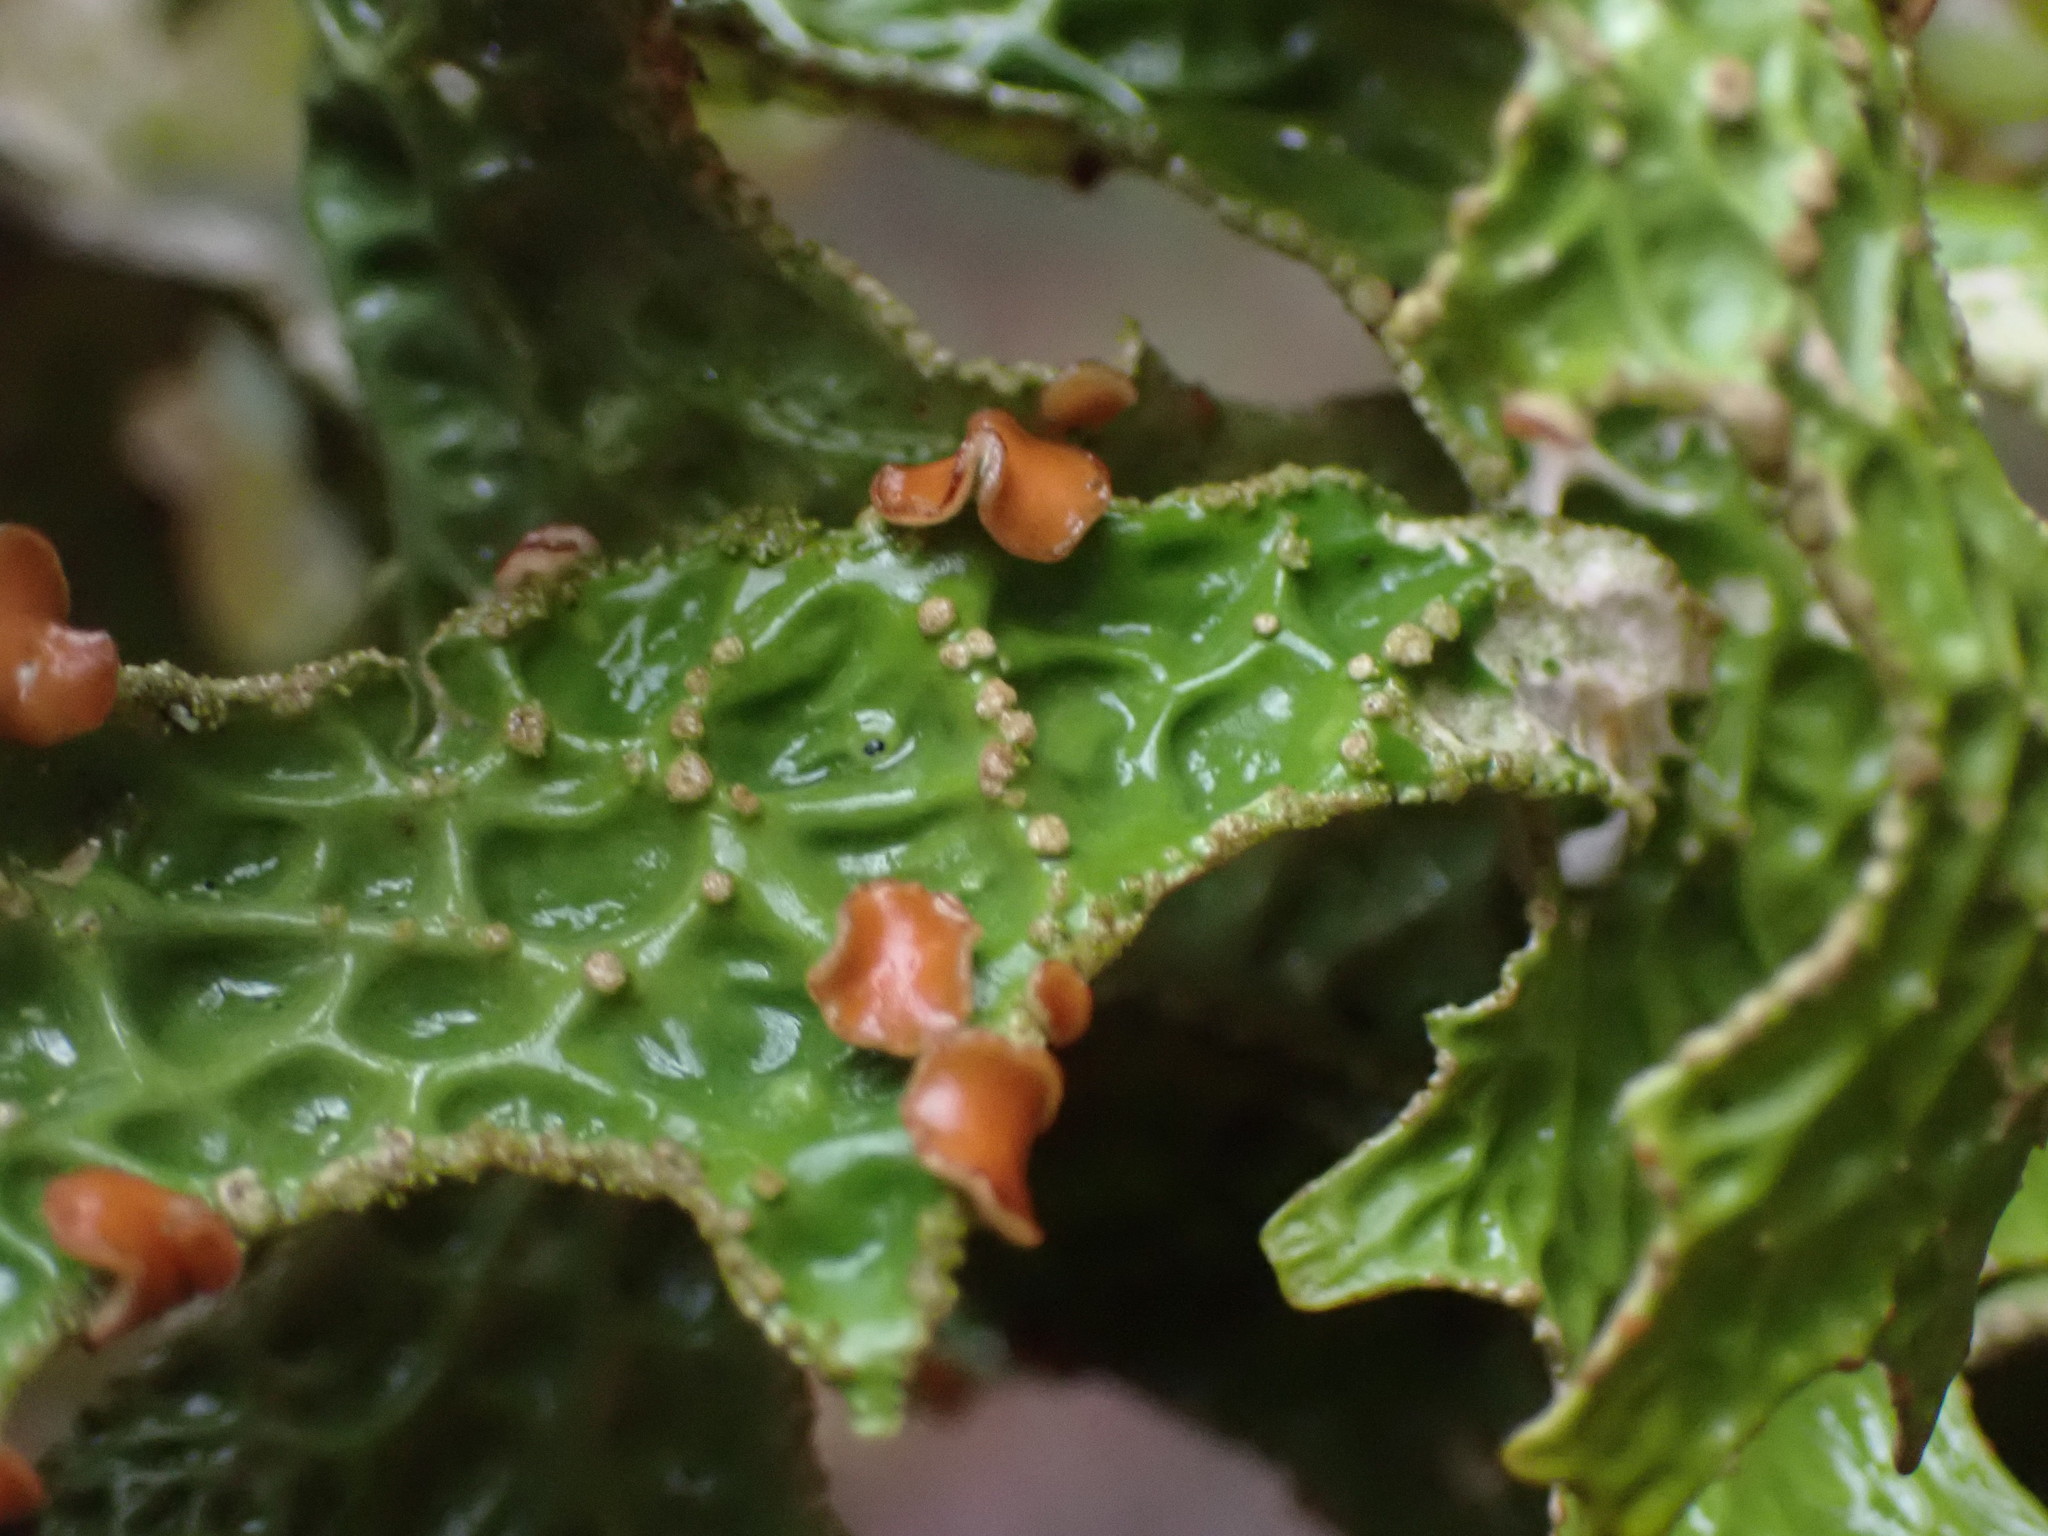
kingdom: Fungi
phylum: Ascomycota
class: Lecanoromycetes
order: Peltigerales
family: Lobariaceae
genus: Lobaria
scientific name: Lobaria pulmonaria
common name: Lungwort
